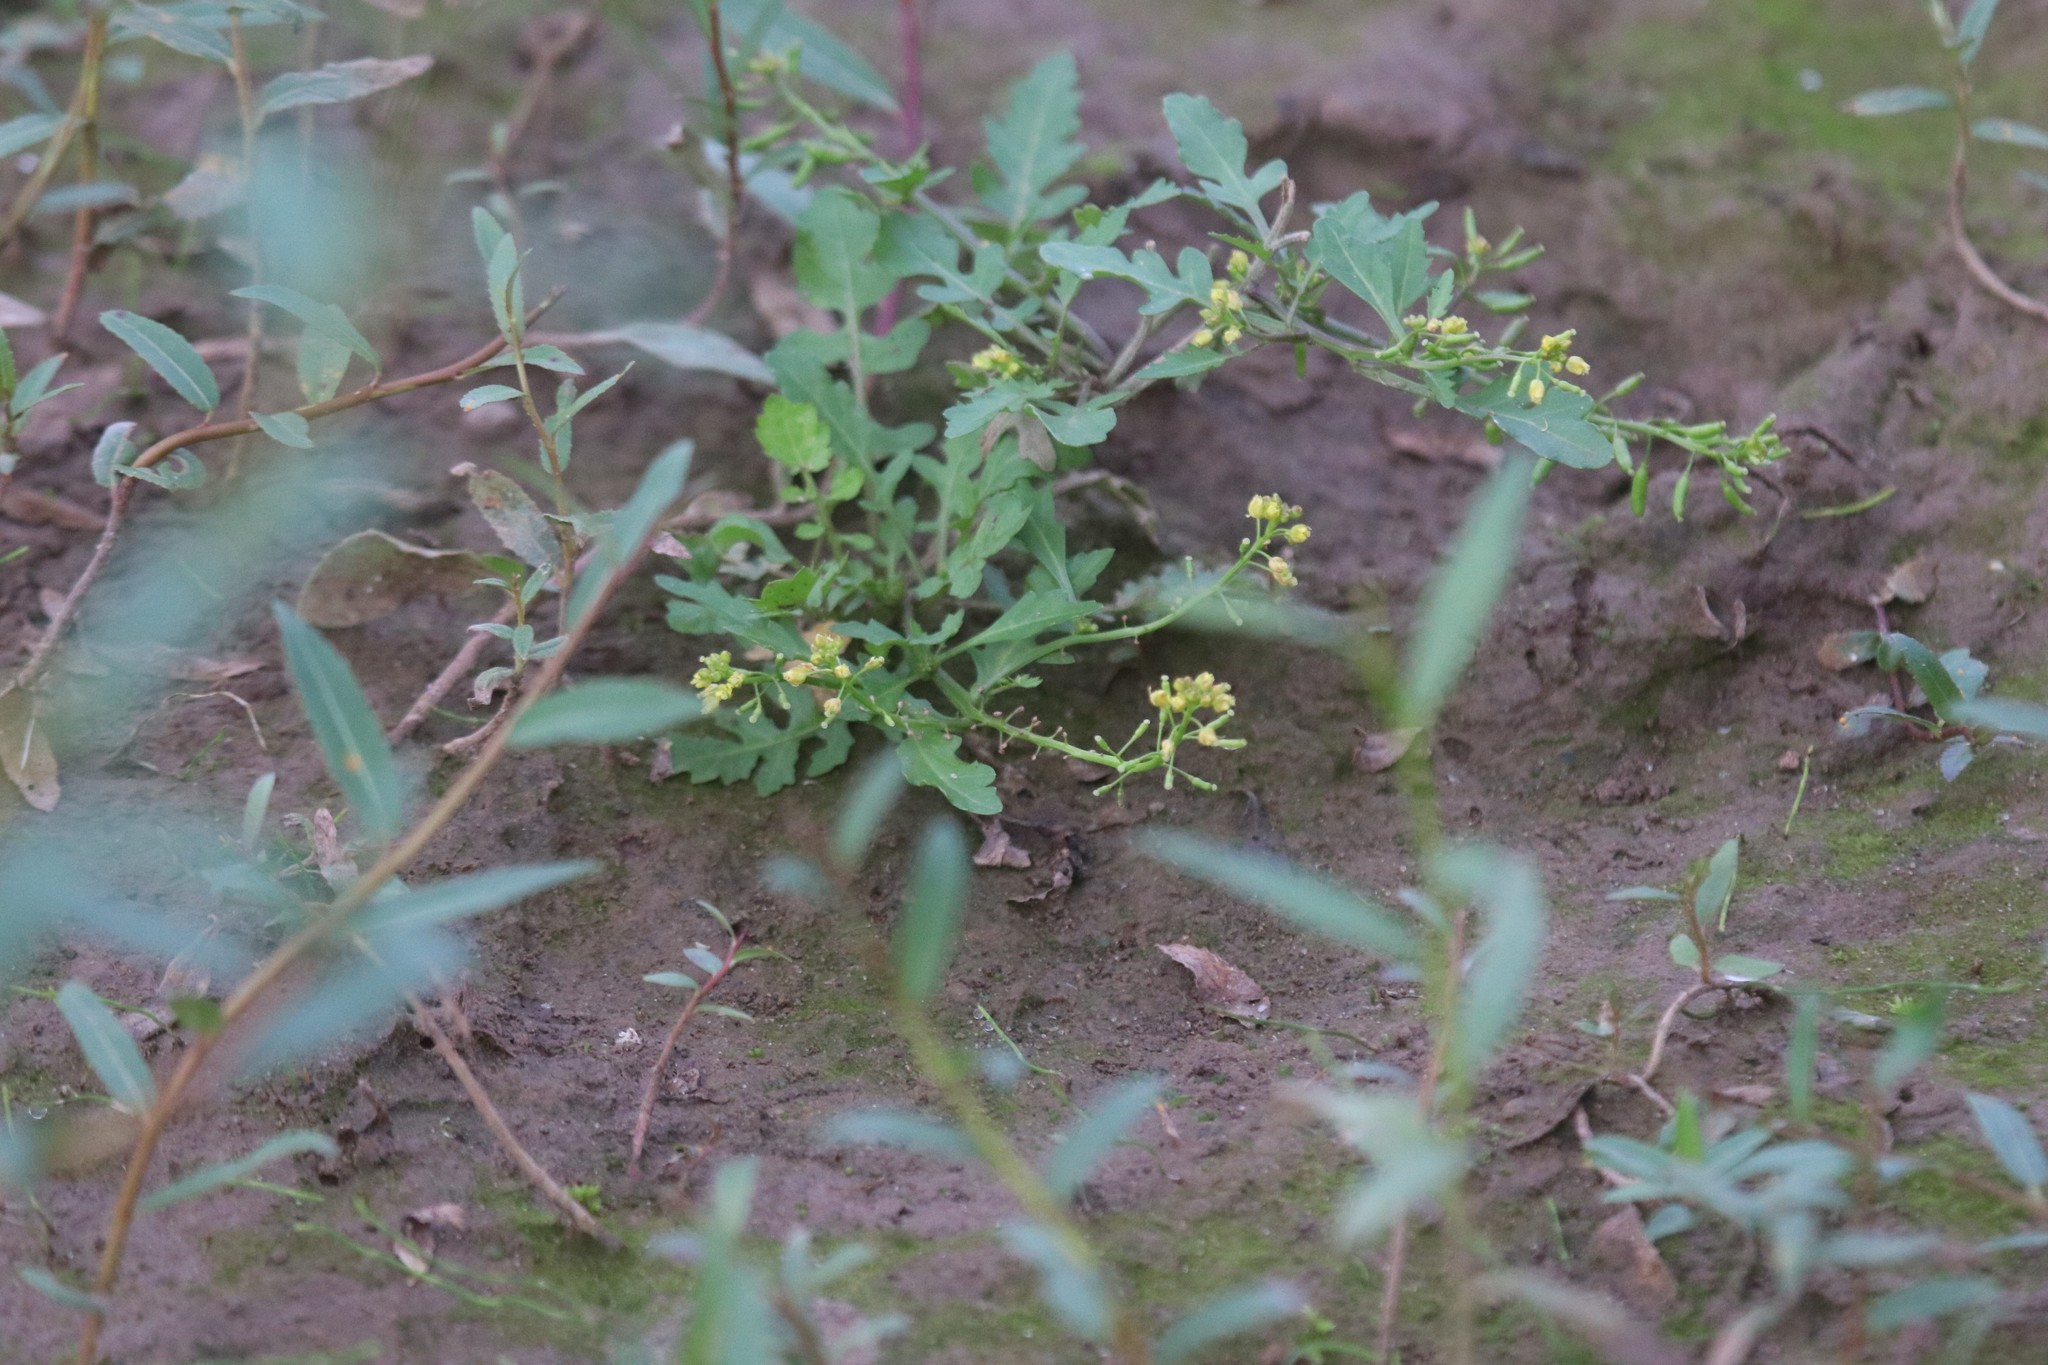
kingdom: Plantae
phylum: Tracheophyta
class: Magnoliopsida
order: Brassicales
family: Brassicaceae
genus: Rorippa
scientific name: Rorippa palustris
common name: Marsh yellow-cress
